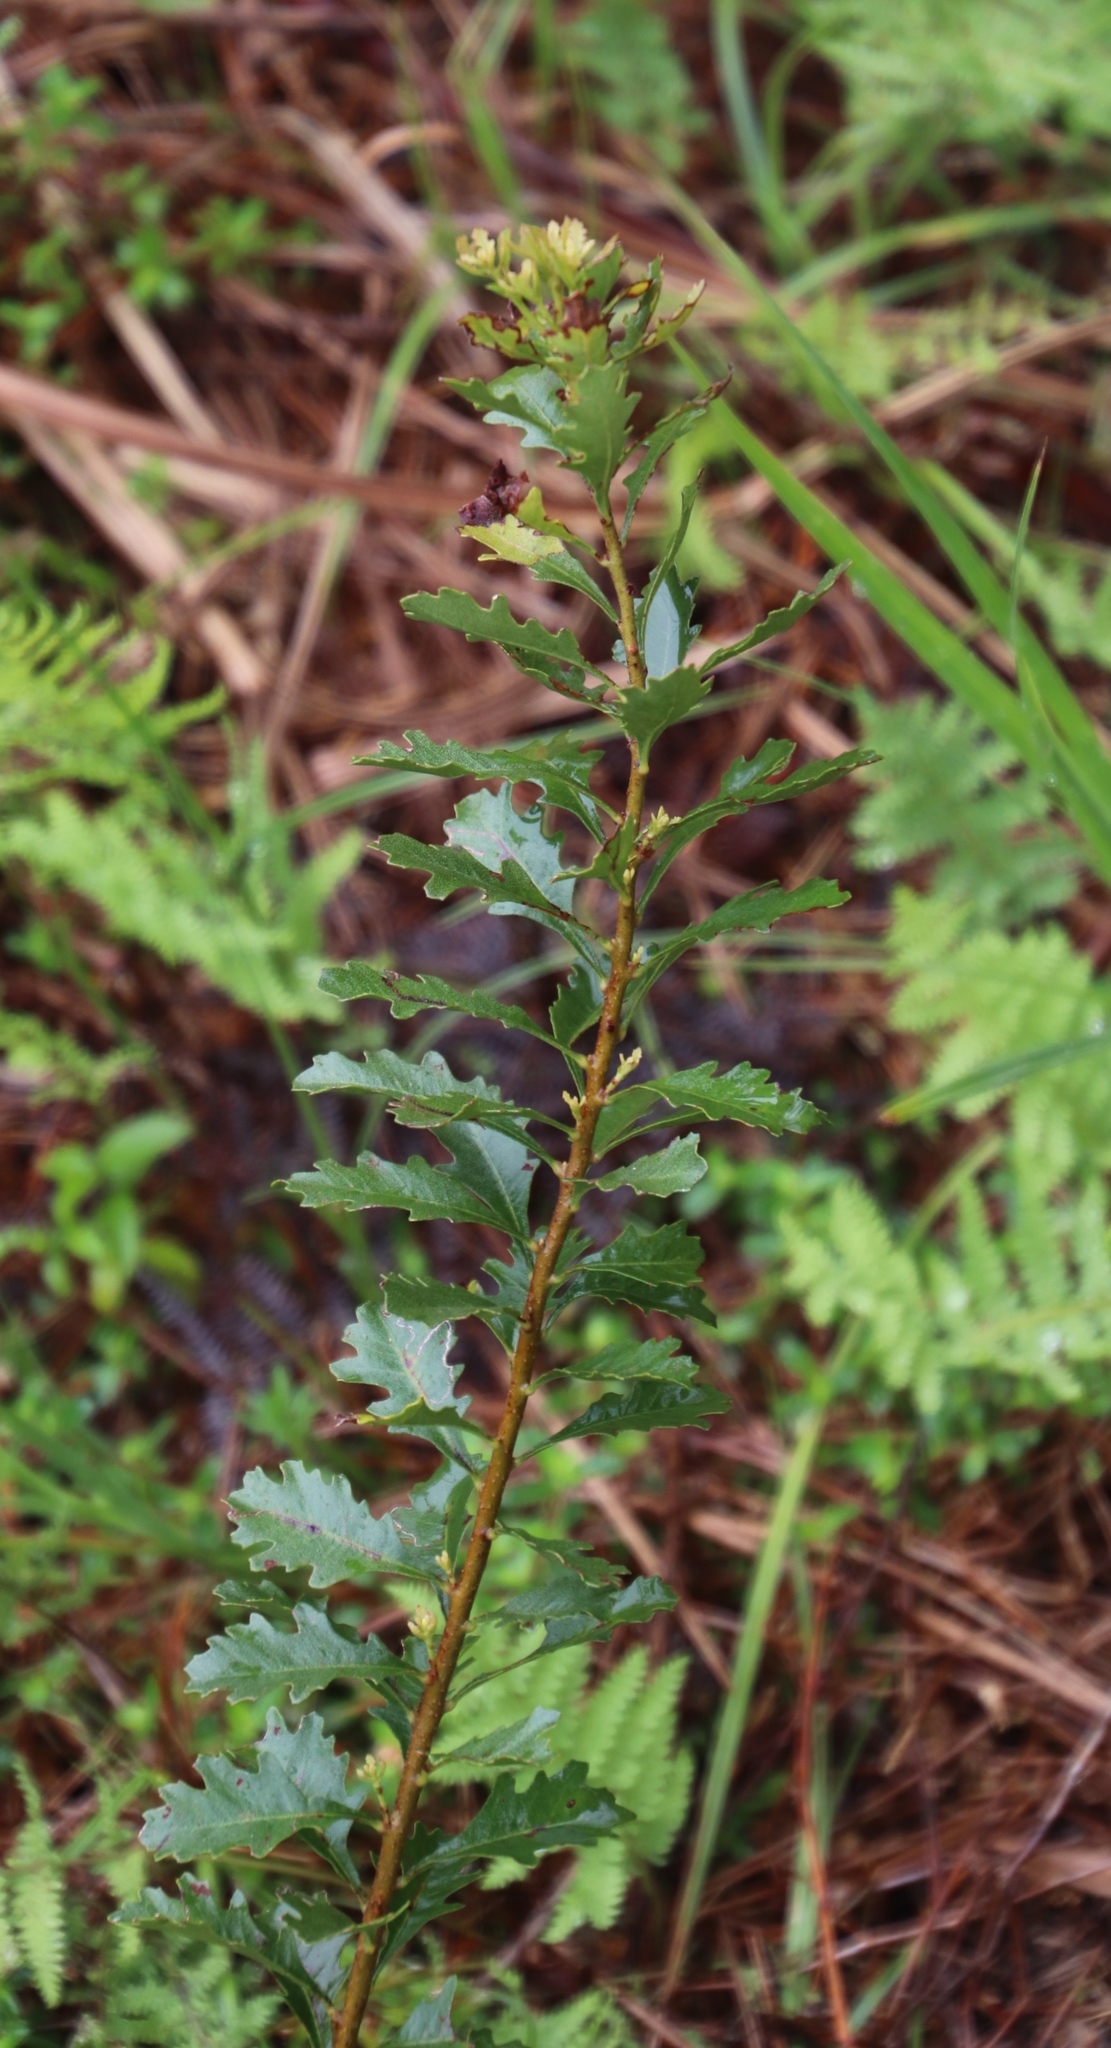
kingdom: Plantae
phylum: Tracheophyta
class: Magnoliopsida
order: Fagales
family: Myricaceae
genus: Morella
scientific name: Morella quercifolia
